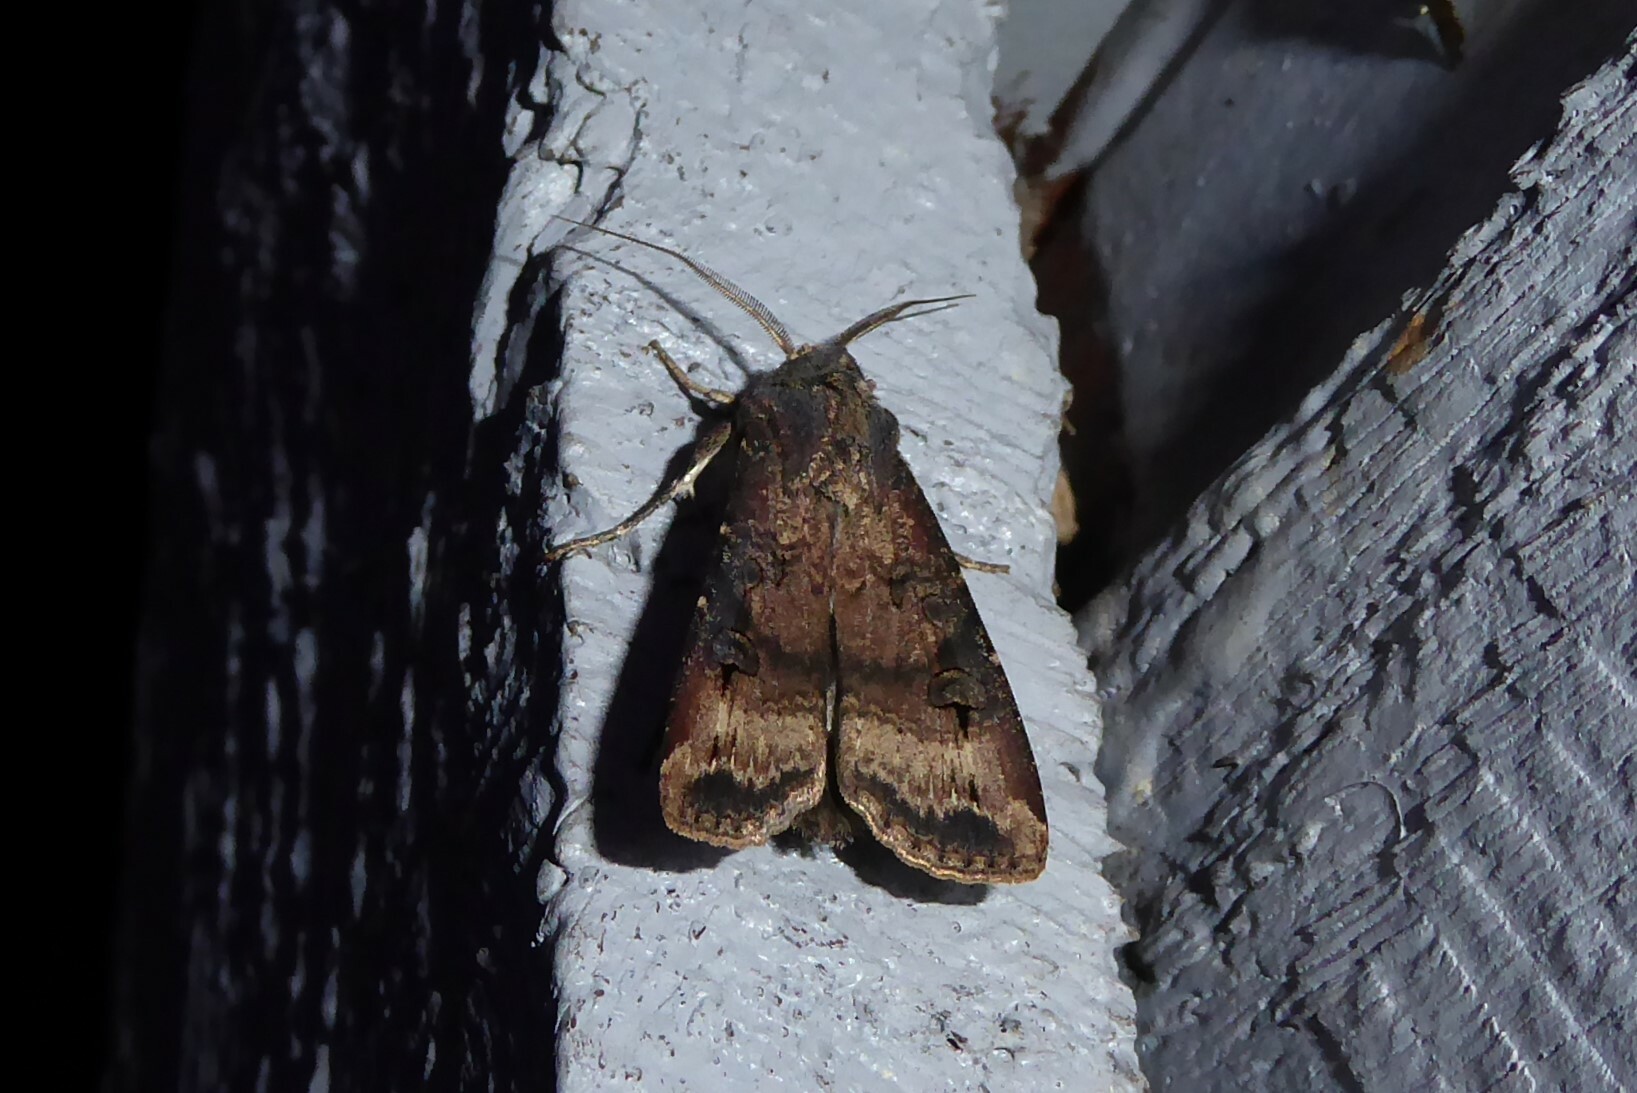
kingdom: Animalia
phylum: Arthropoda
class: Insecta
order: Lepidoptera
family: Noctuidae
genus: Agrotis
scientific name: Agrotis ipsilon
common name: Dark sword-grass
